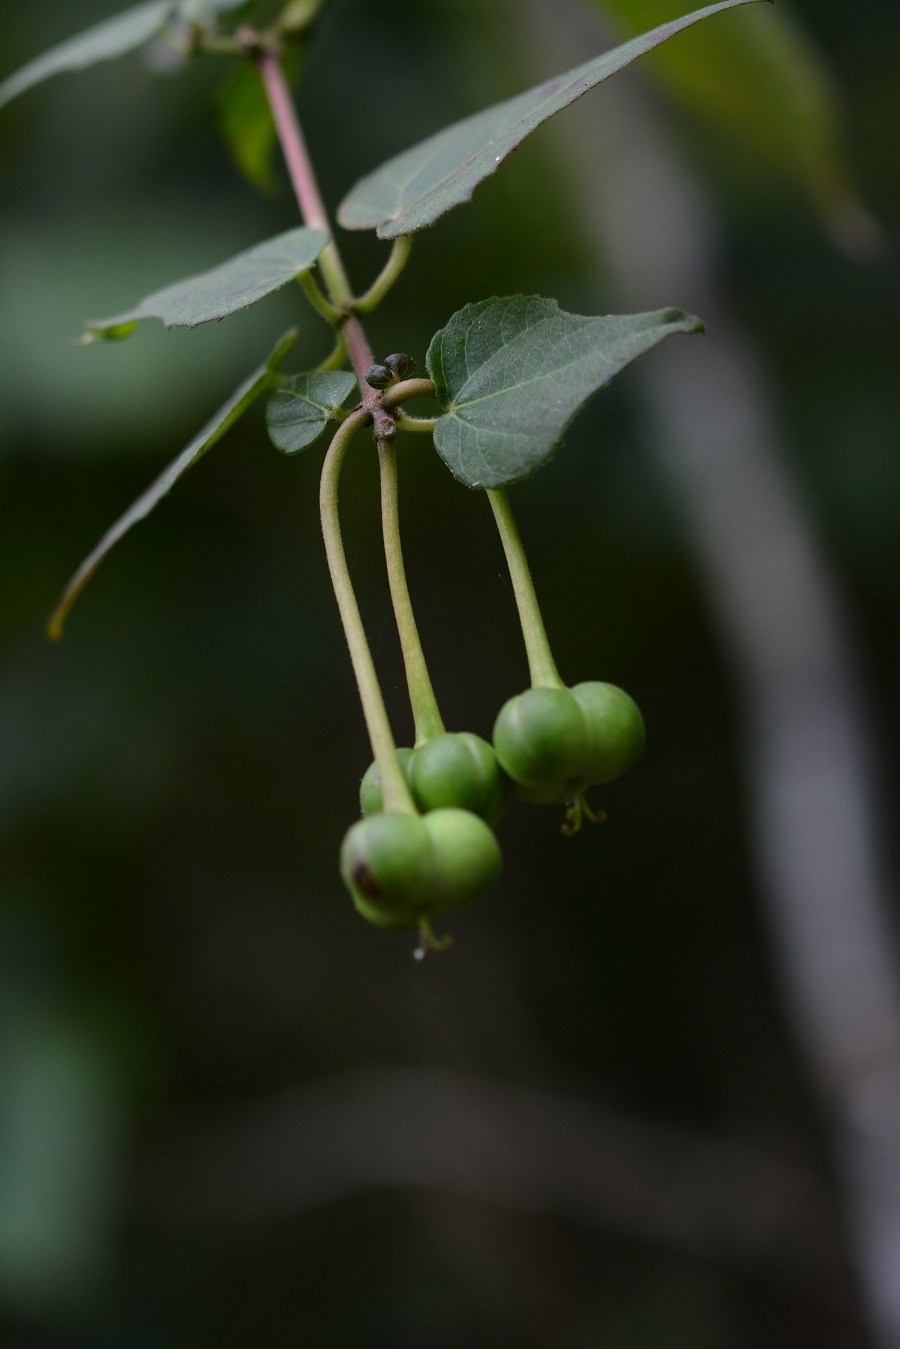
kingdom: Plantae
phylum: Tracheophyta
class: Magnoliopsida
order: Malpighiales
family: Euphorbiaceae
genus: Dalembertia
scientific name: Dalembertia triangularis
